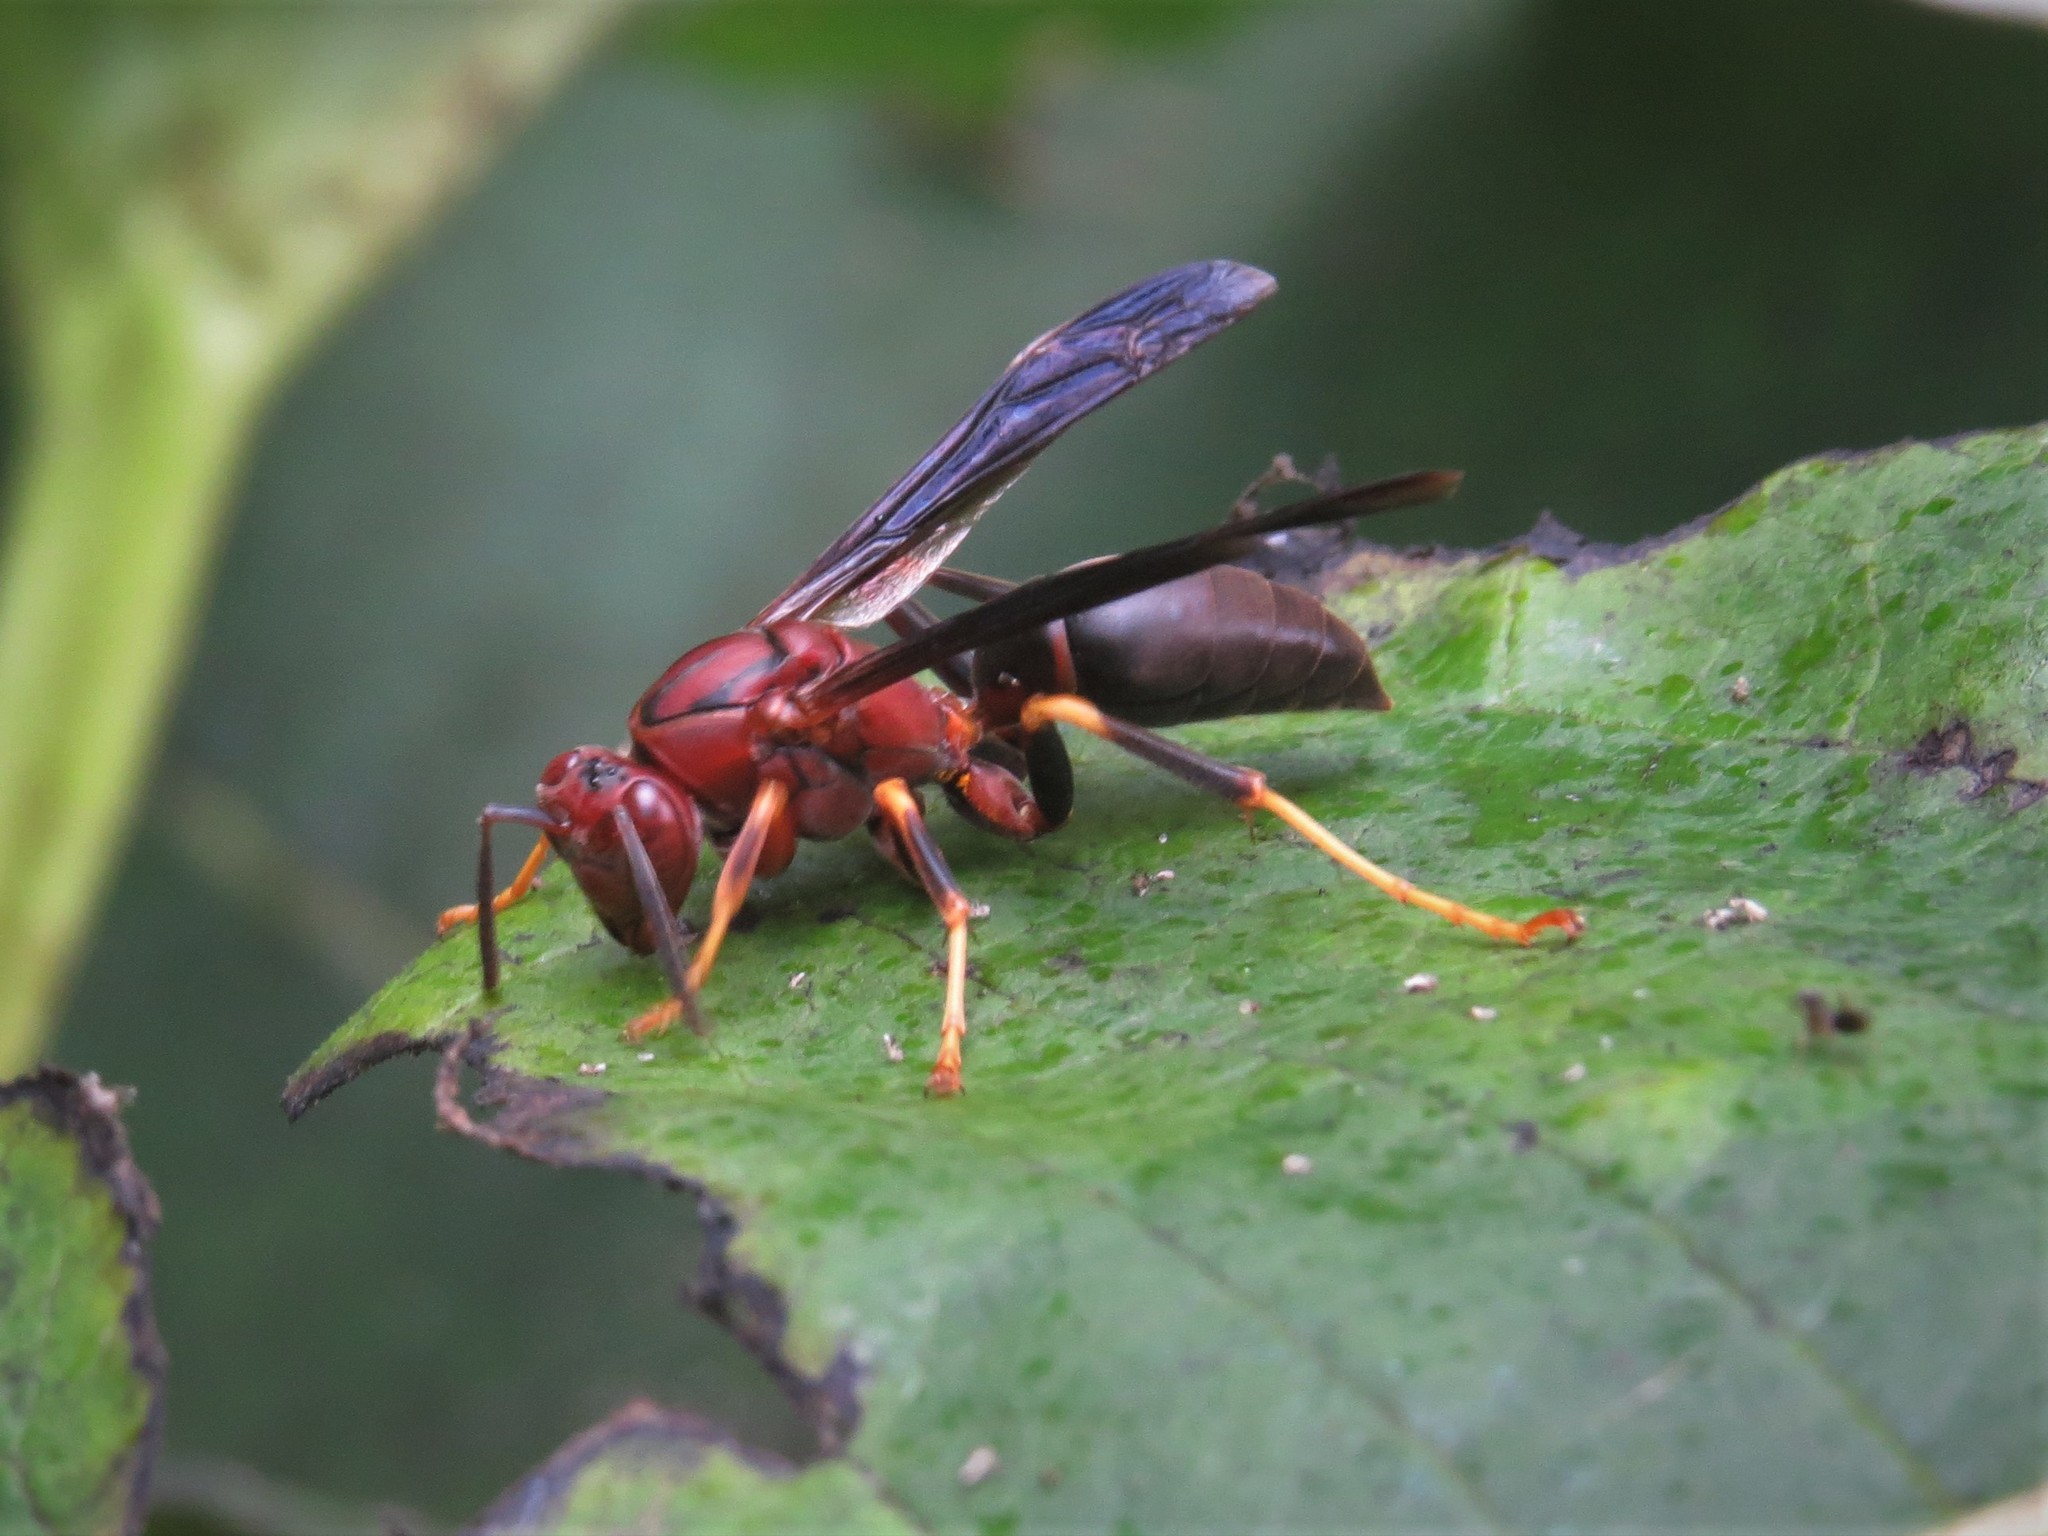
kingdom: Animalia
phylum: Arthropoda
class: Insecta
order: Hymenoptera
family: Eumenidae
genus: Polistes
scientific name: Polistes metricus
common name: Metric paper wasp
